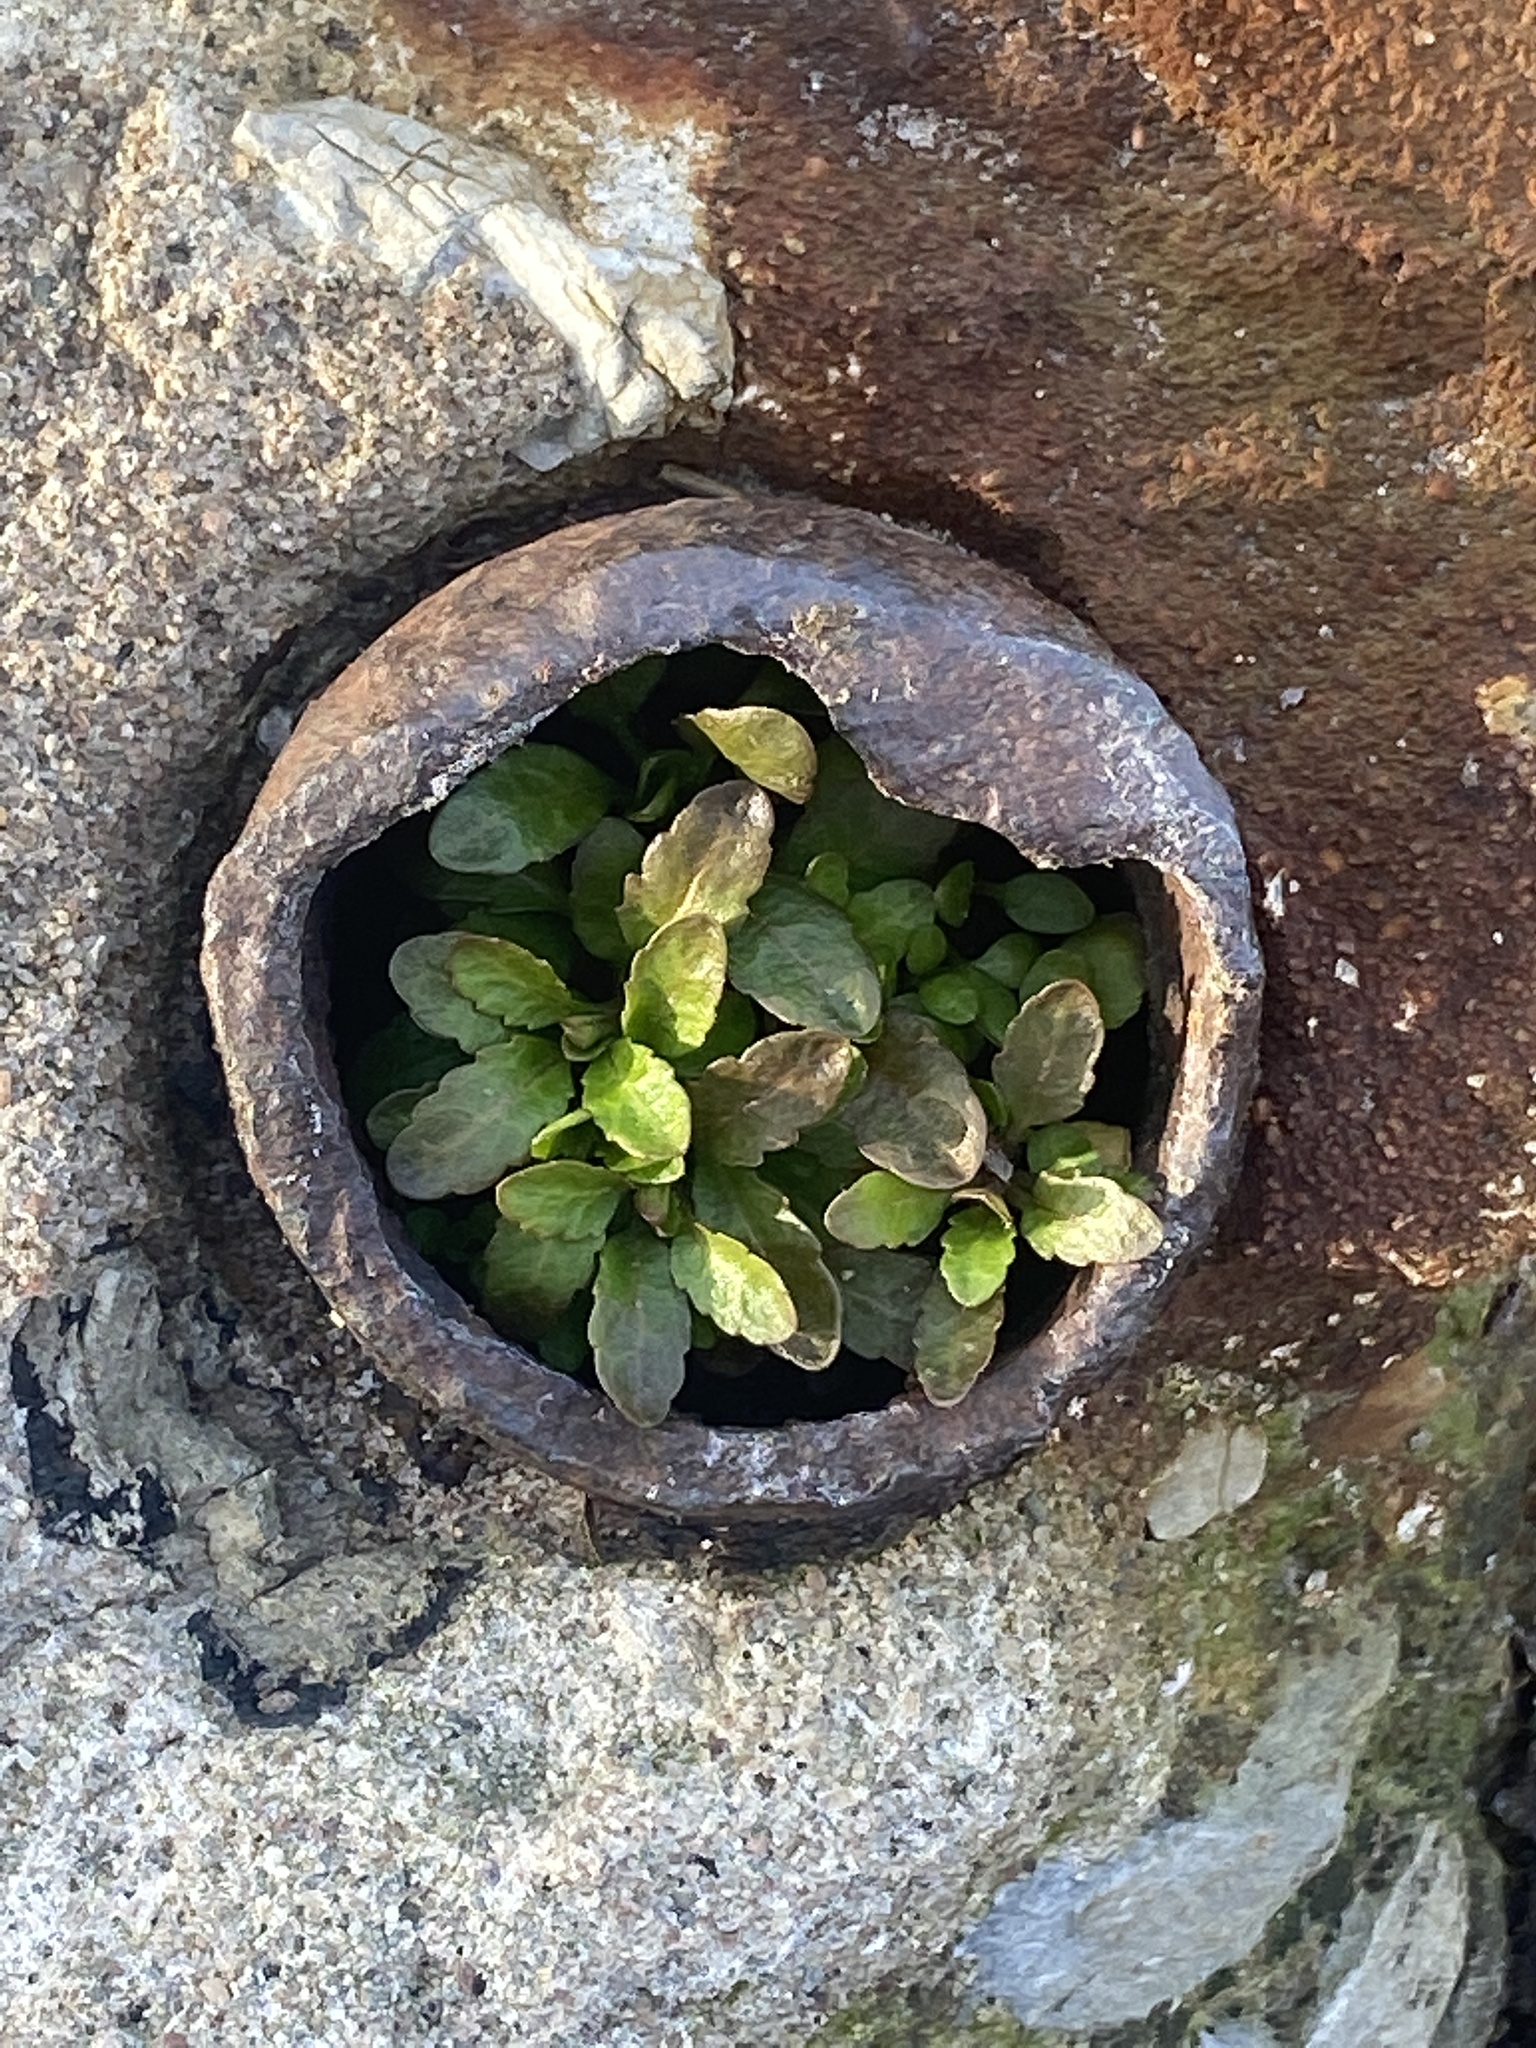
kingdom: Plantae
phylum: Tracheophyta
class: Magnoliopsida
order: Lamiales
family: Plantaginaceae
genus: Veronica
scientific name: Veronica peregrina
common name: Neckweed
